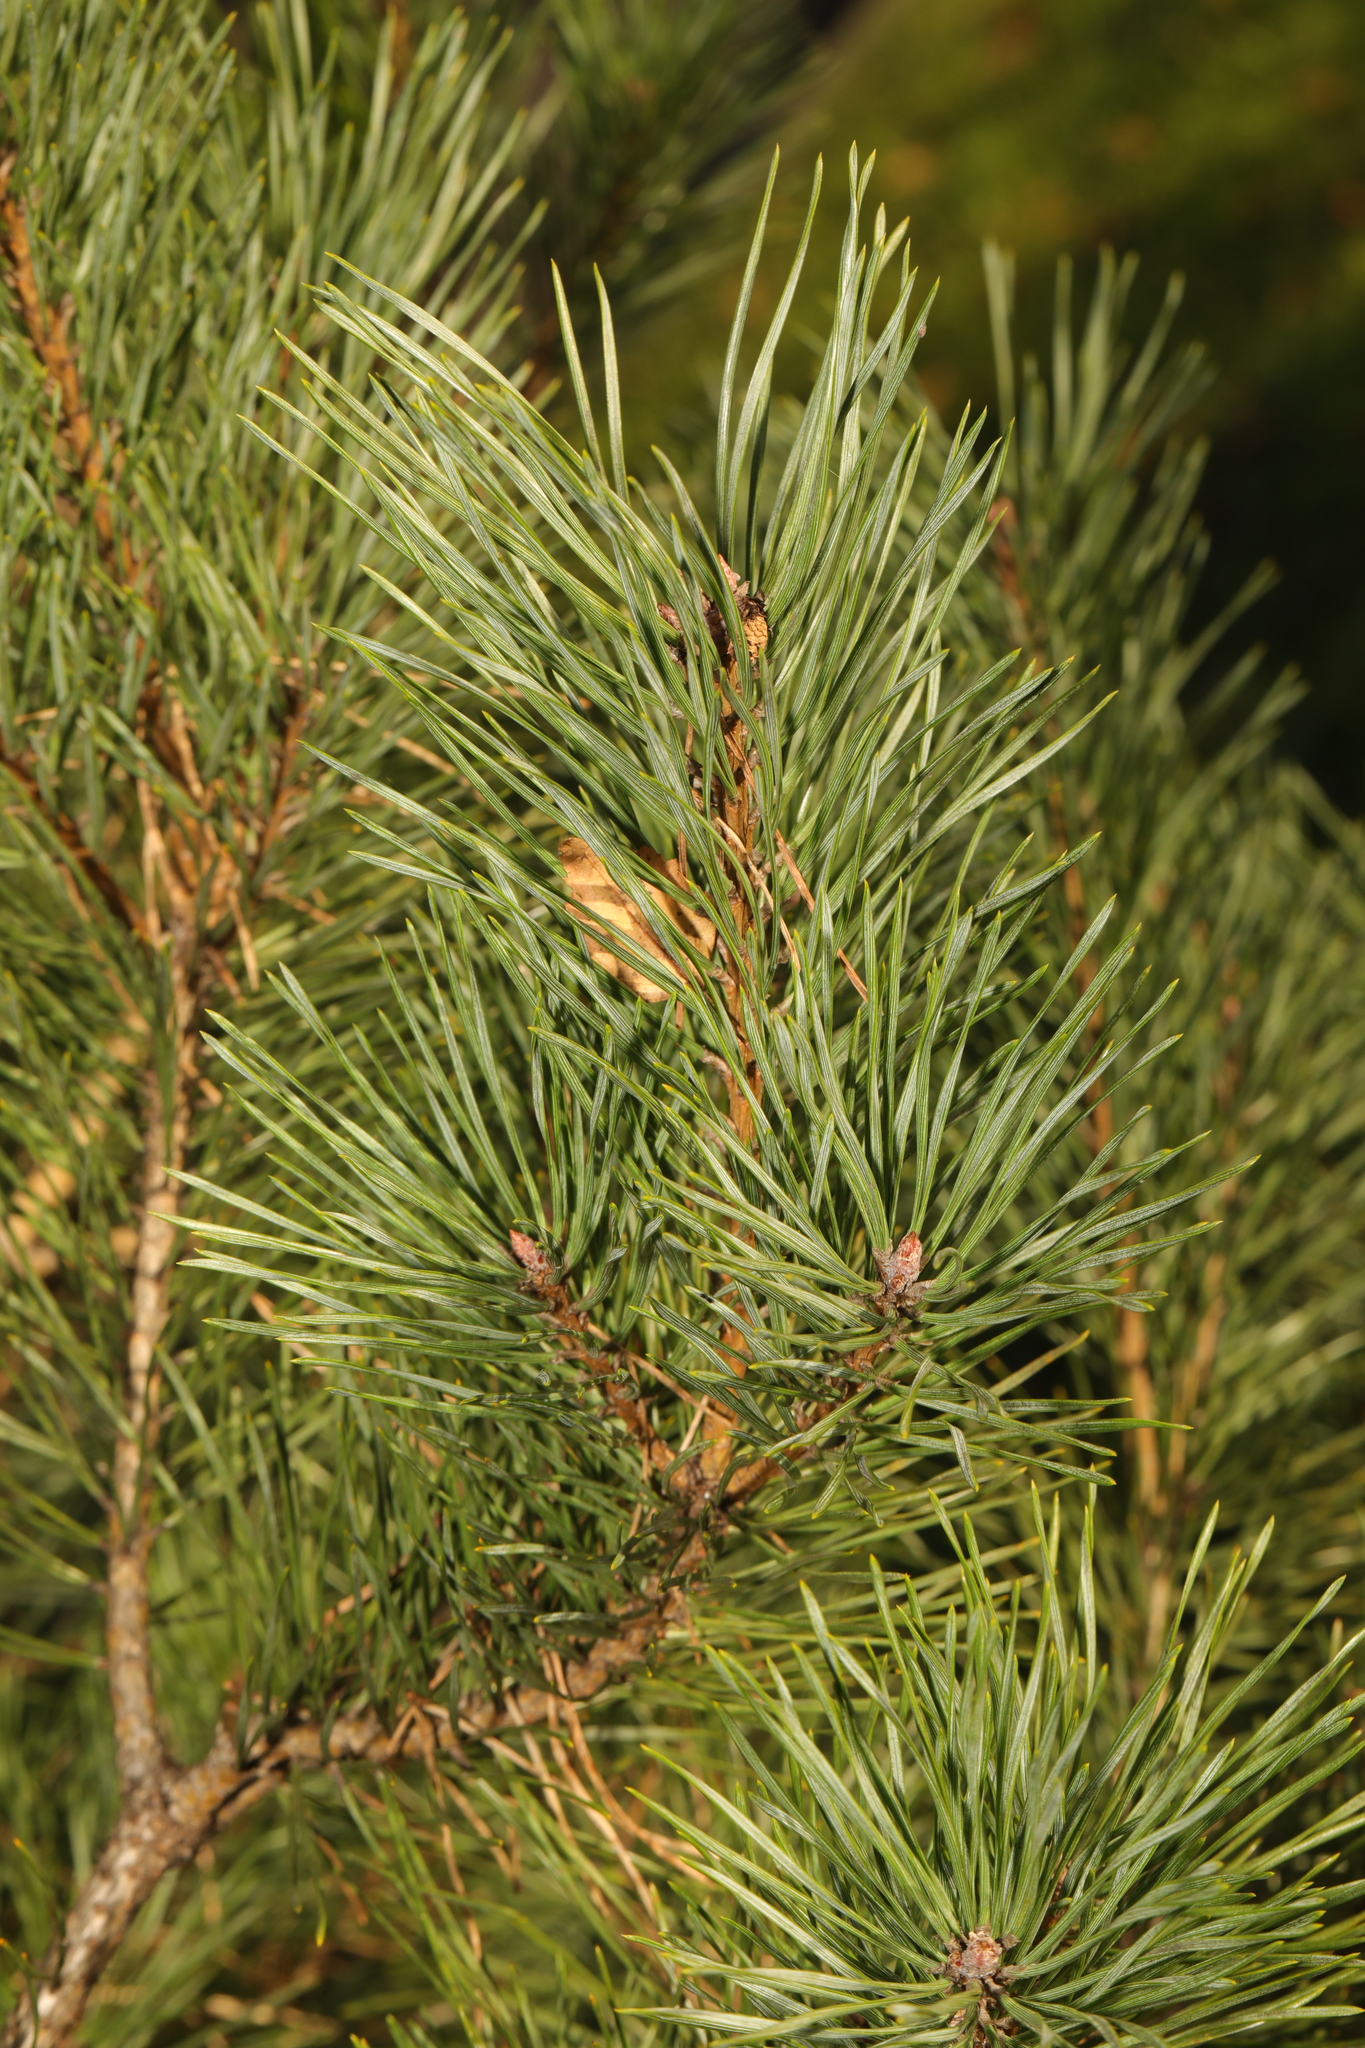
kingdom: Plantae
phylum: Tracheophyta
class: Pinopsida
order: Pinales
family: Pinaceae
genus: Pinus
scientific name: Pinus sylvestris
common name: Scots pine
